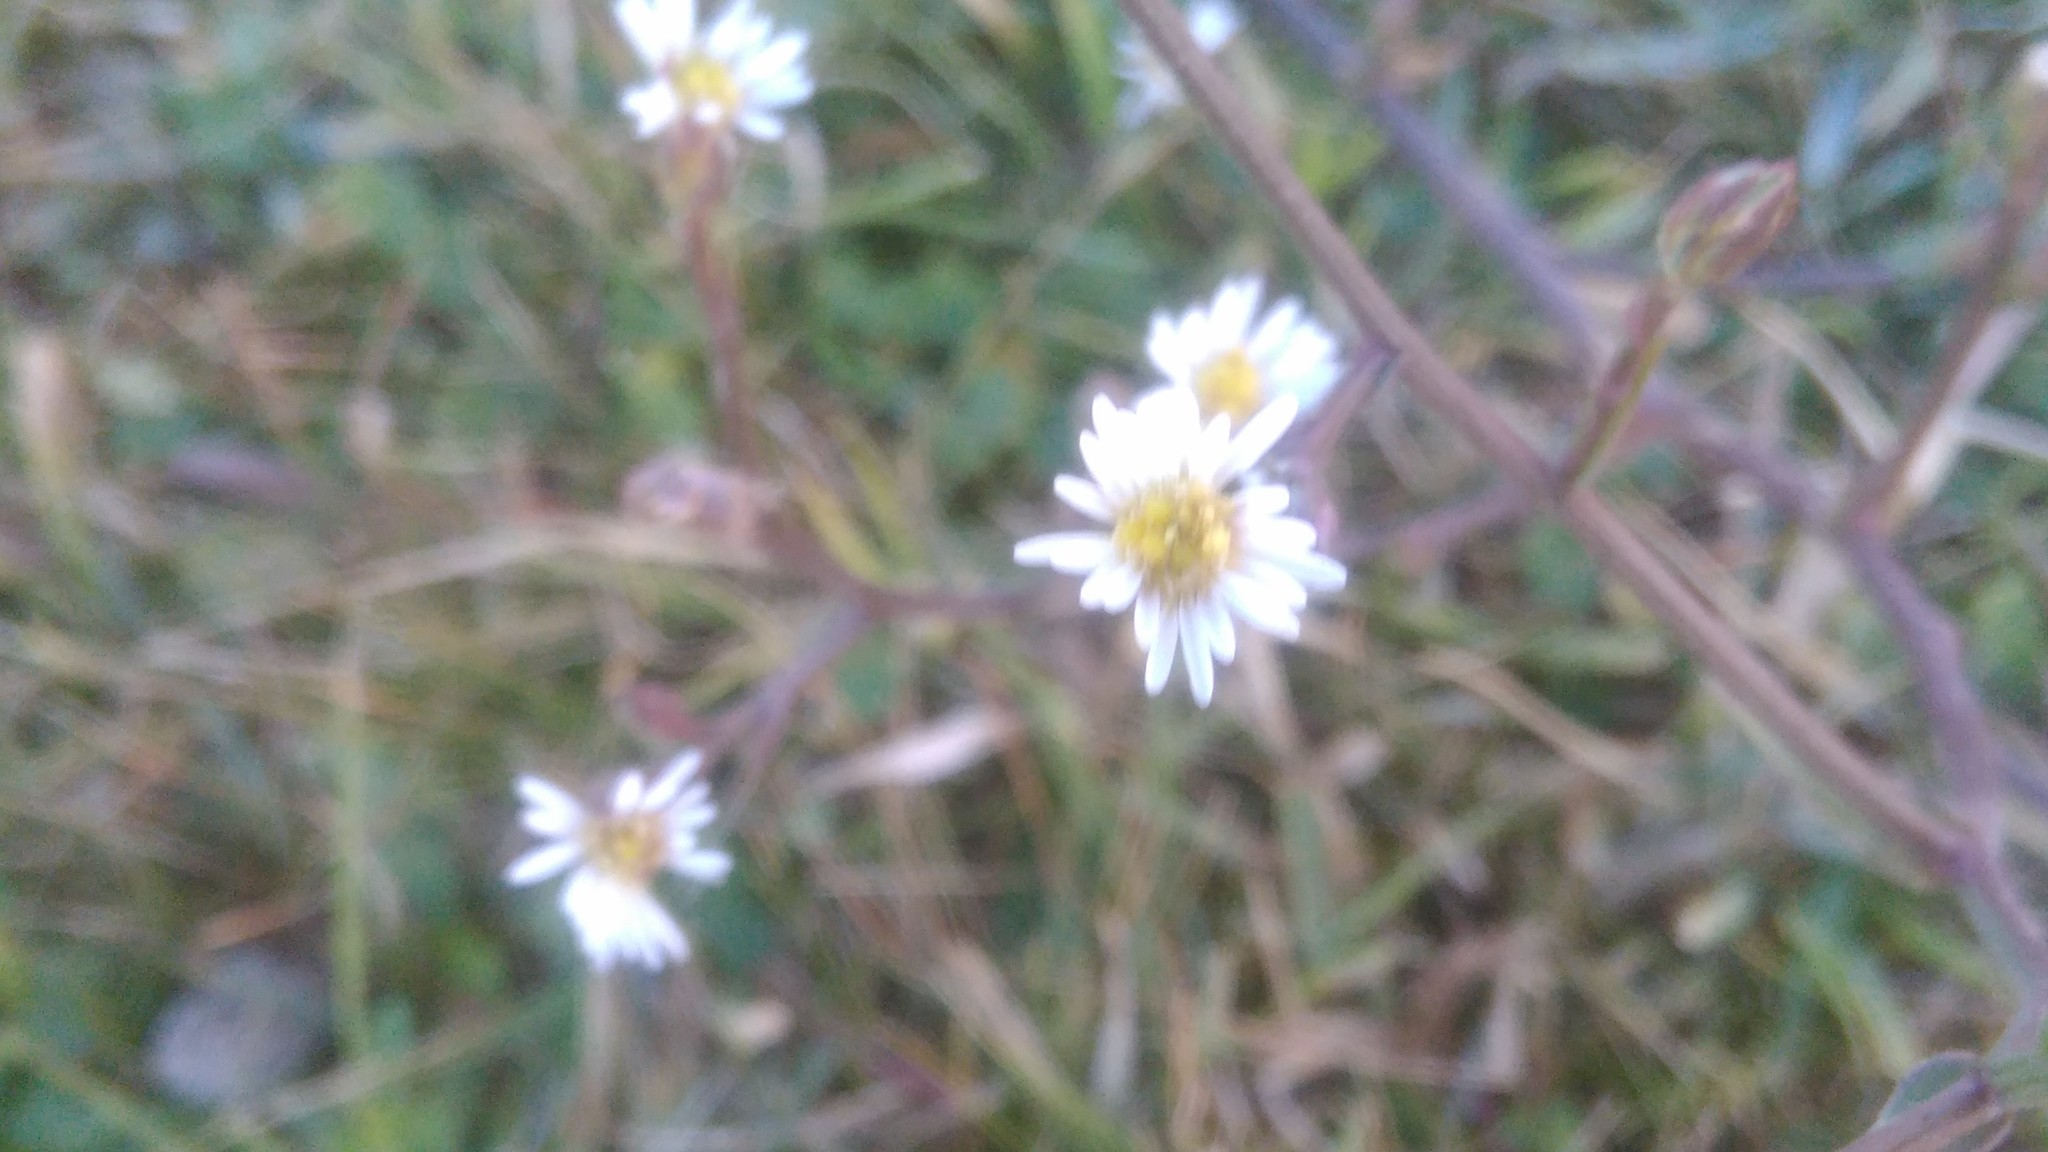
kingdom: Plantae
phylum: Tracheophyta
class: Magnoliopsida
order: Asterales
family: Asteraceae
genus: Symphyotrichum
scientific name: Symphyotrichum squamatum
